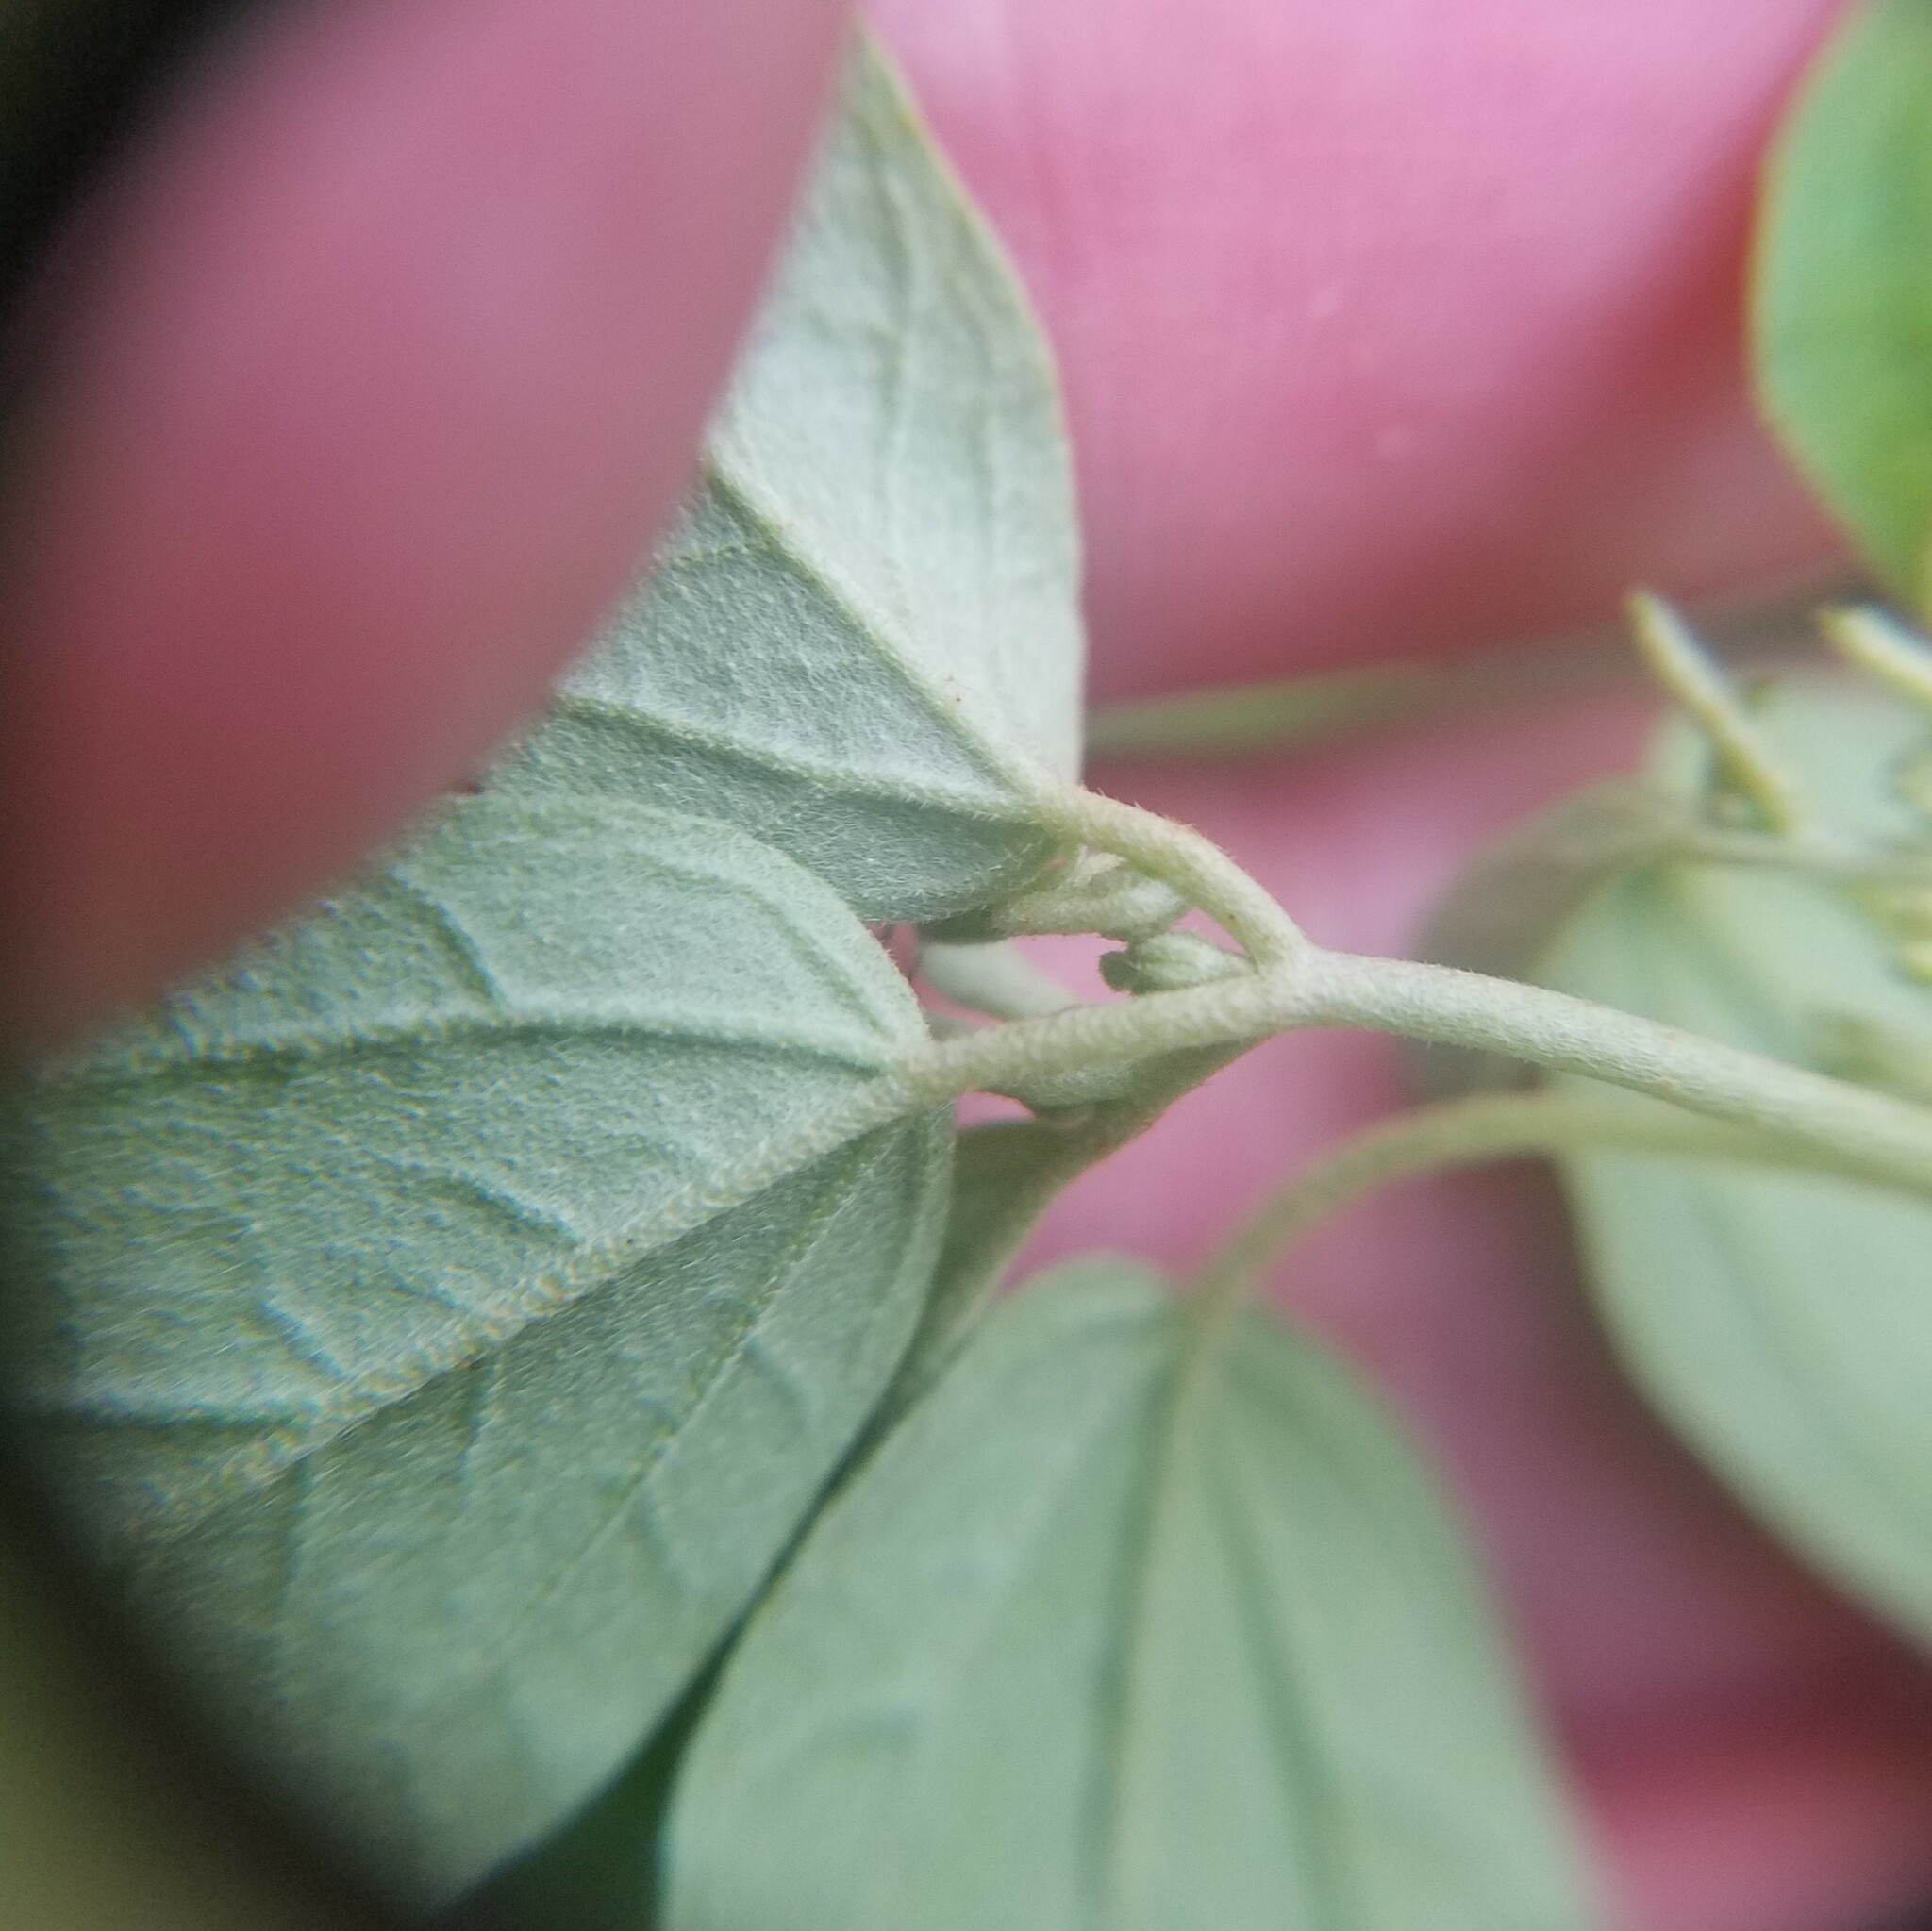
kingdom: Plantae
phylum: Tracheophyta
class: Magnoliopsida
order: Malpighiales
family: Euphorbiaceae
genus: Croton
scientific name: Croton monanthogynus
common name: One-seed croton
